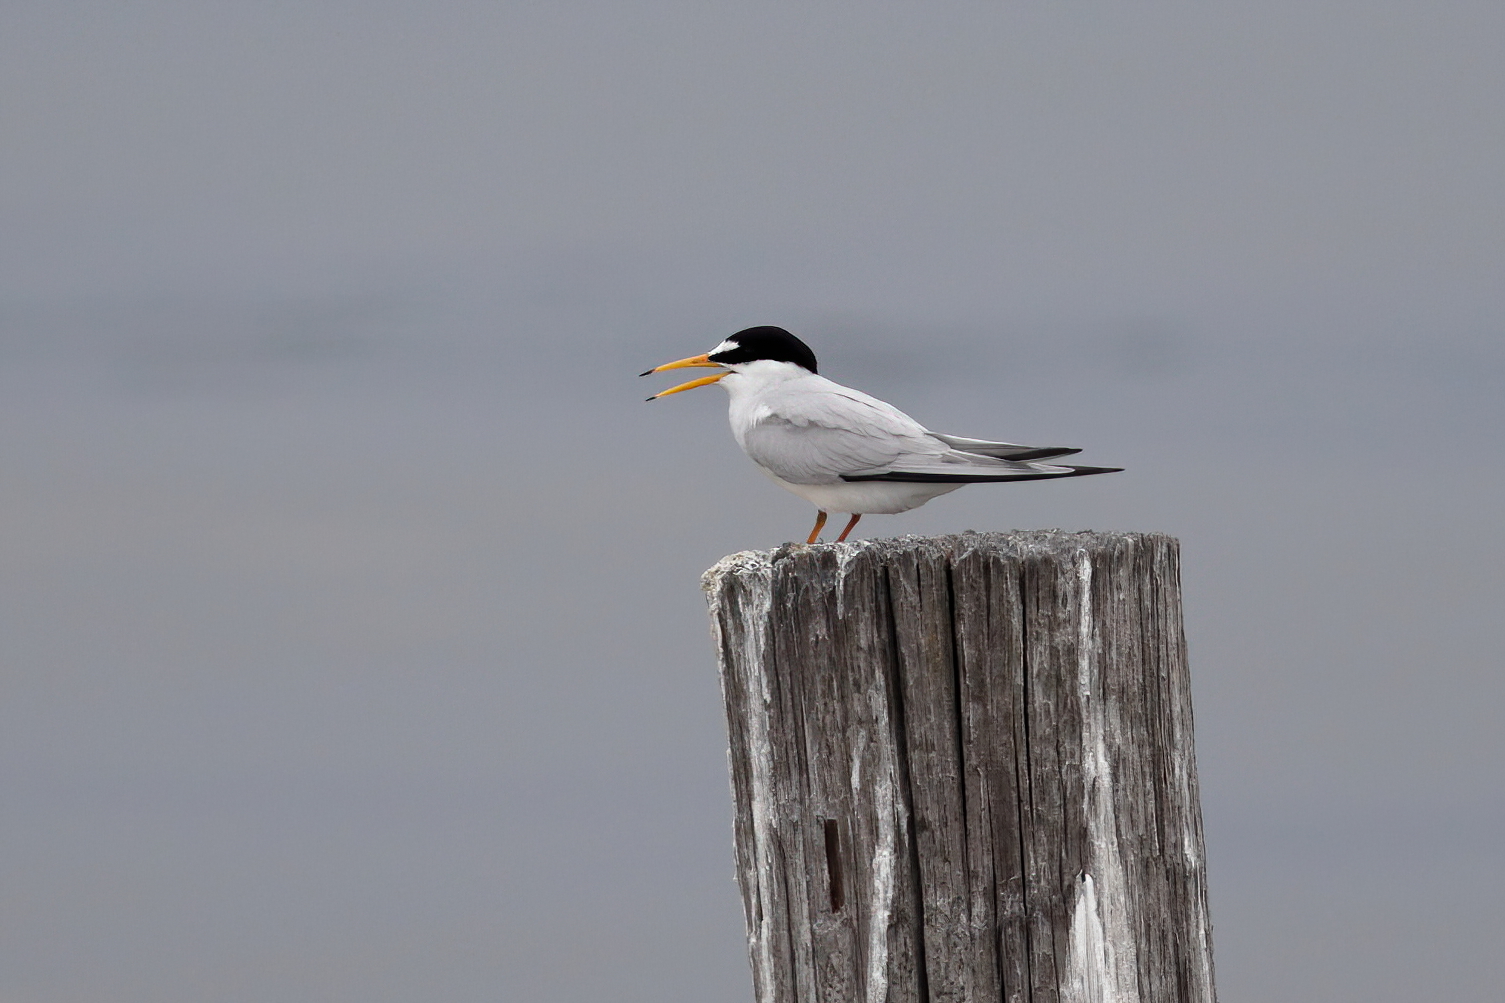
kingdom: Animalia
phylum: Chordata
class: Aves
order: Charadriiformes
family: Laridae
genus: Sternula
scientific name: Sternula antillarum
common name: Least tern
